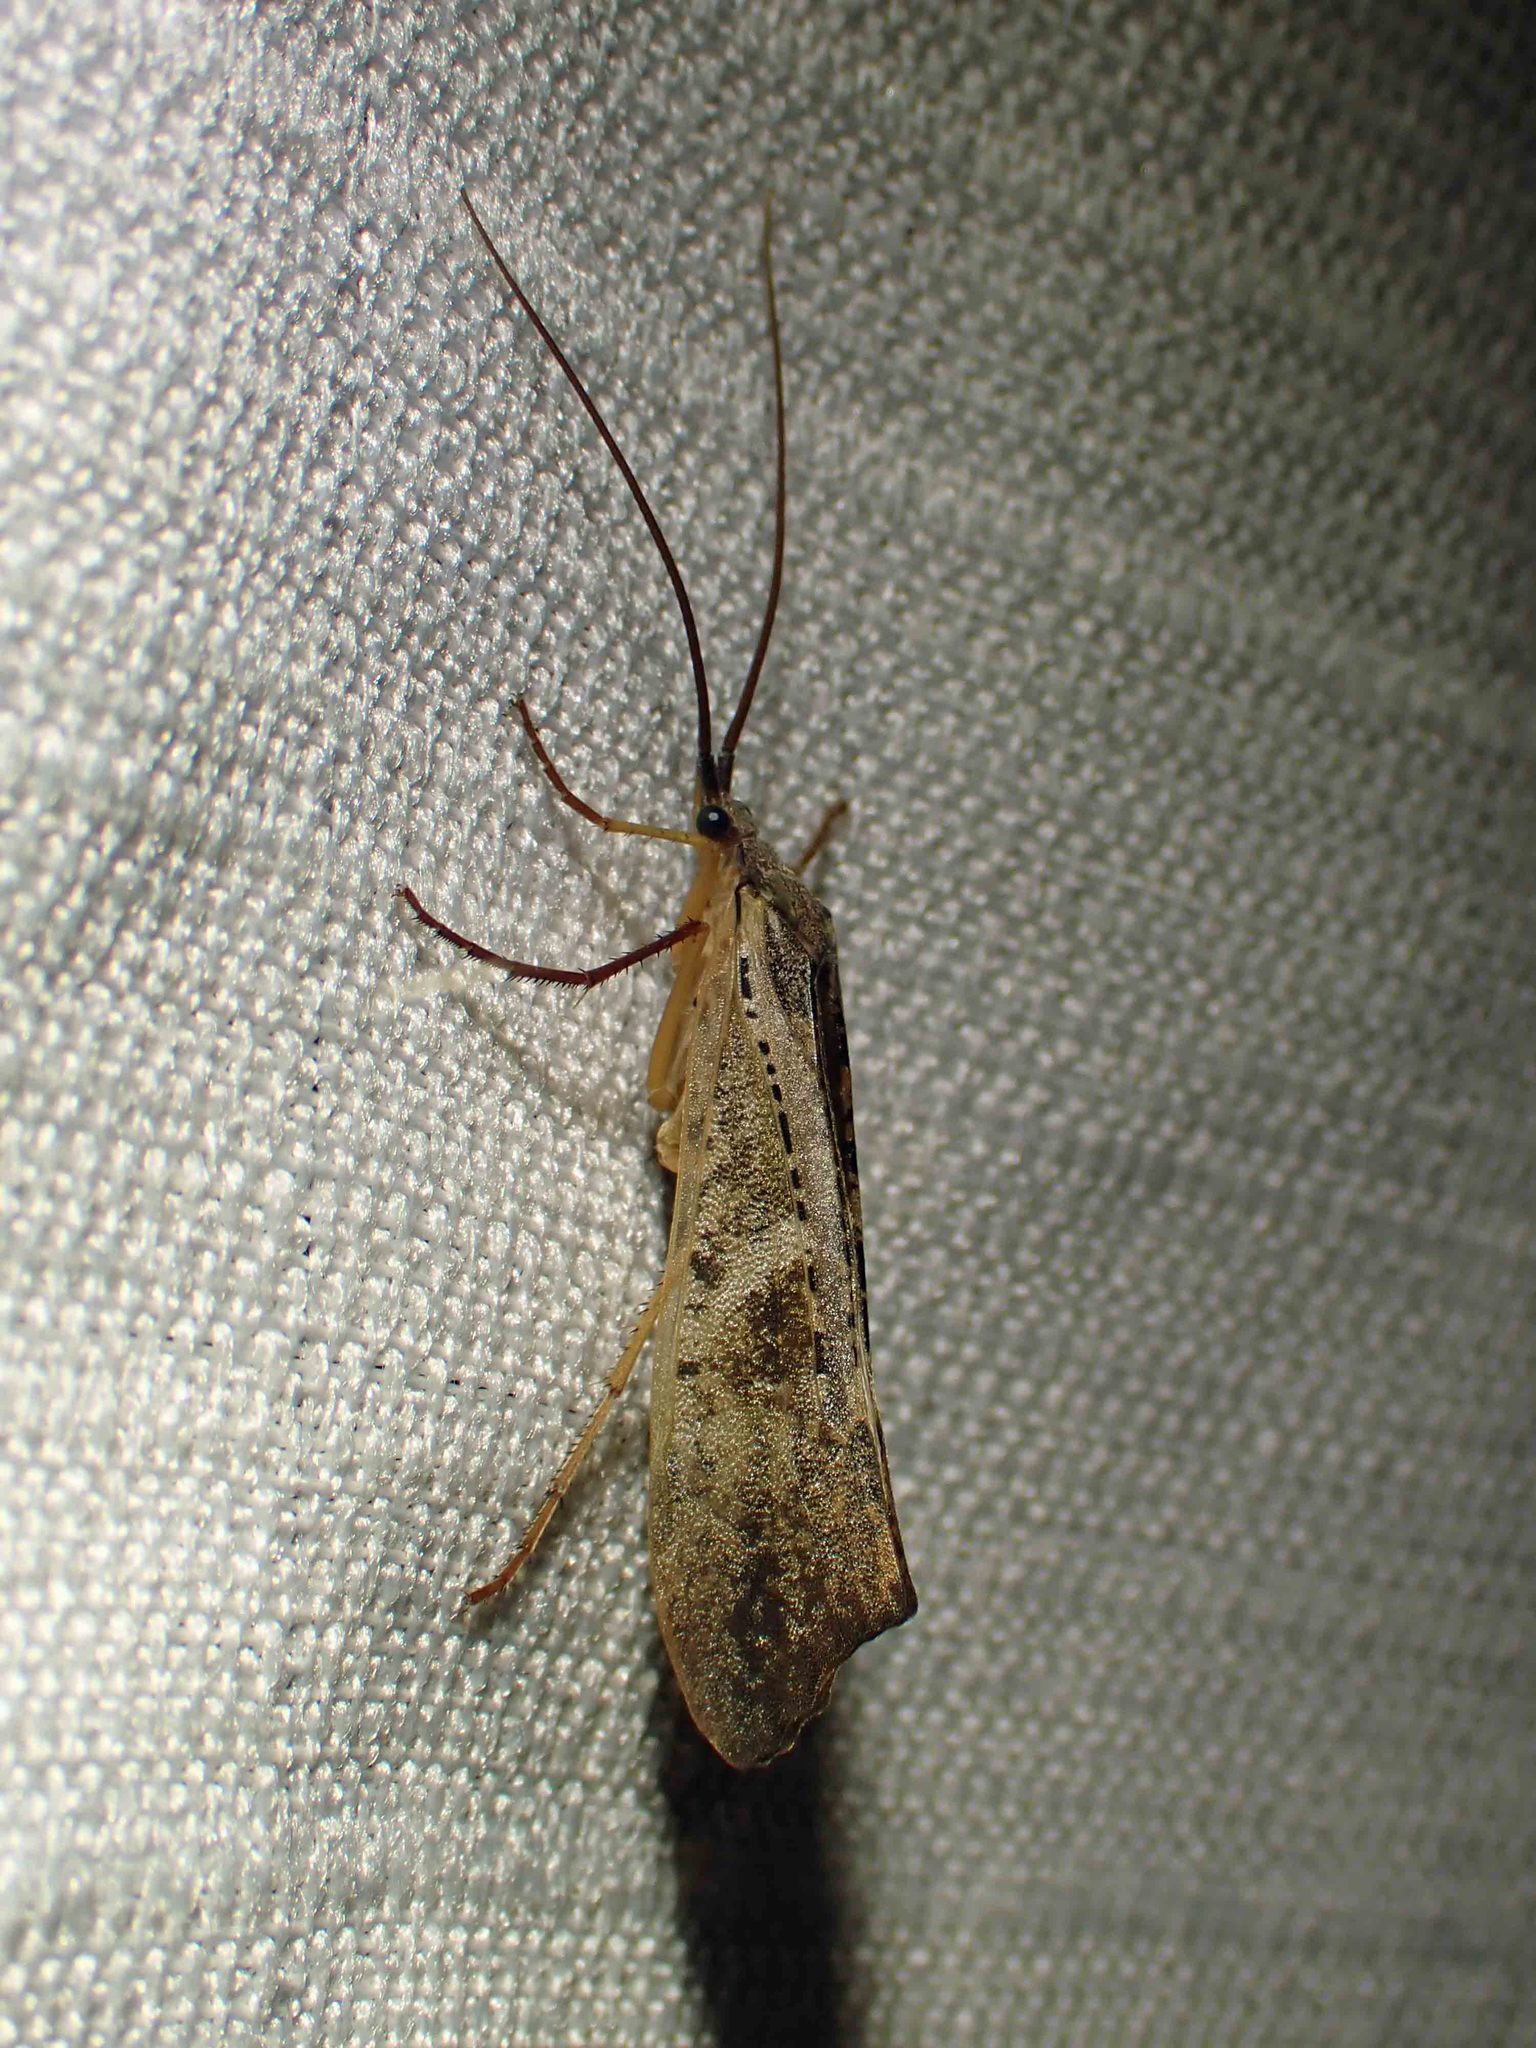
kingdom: Animalia
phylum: Arthropoda
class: Insecta
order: Trichoptera
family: Limnephilidae
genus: Nemotaulius
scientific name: Nemotaulius hostilis
